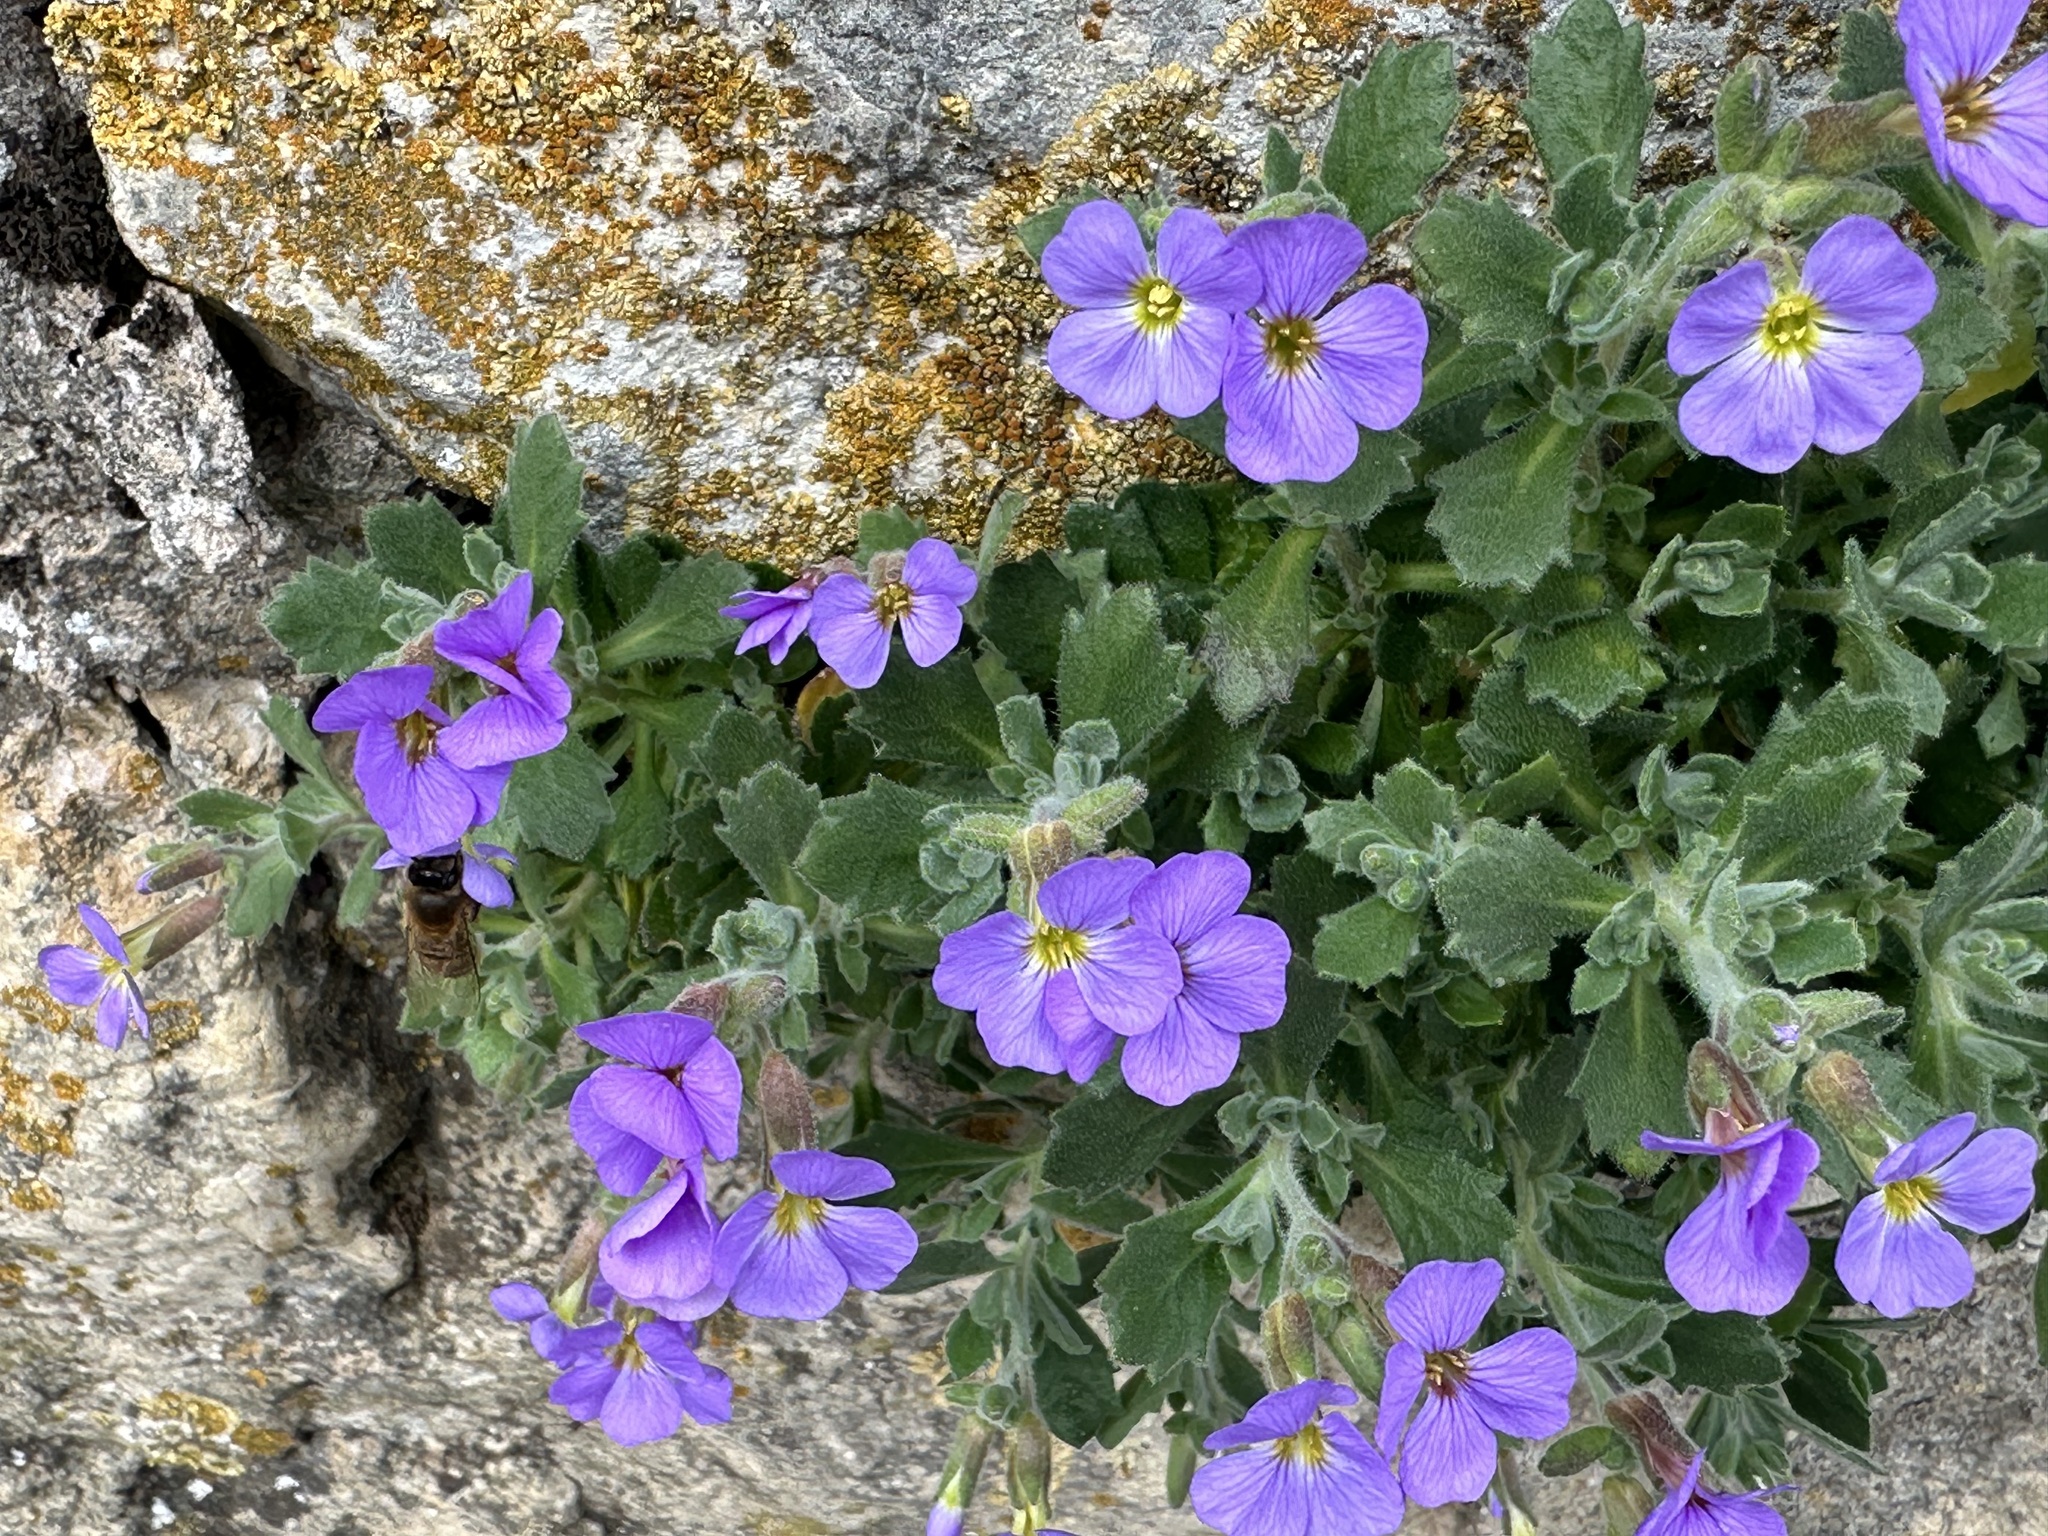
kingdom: Plantae
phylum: Tracheophyta
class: Magnoliopsida
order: Brassicales
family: Brassicaceae
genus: Aubrieta
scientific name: Aubrieta deltoidea
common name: Aubretia
